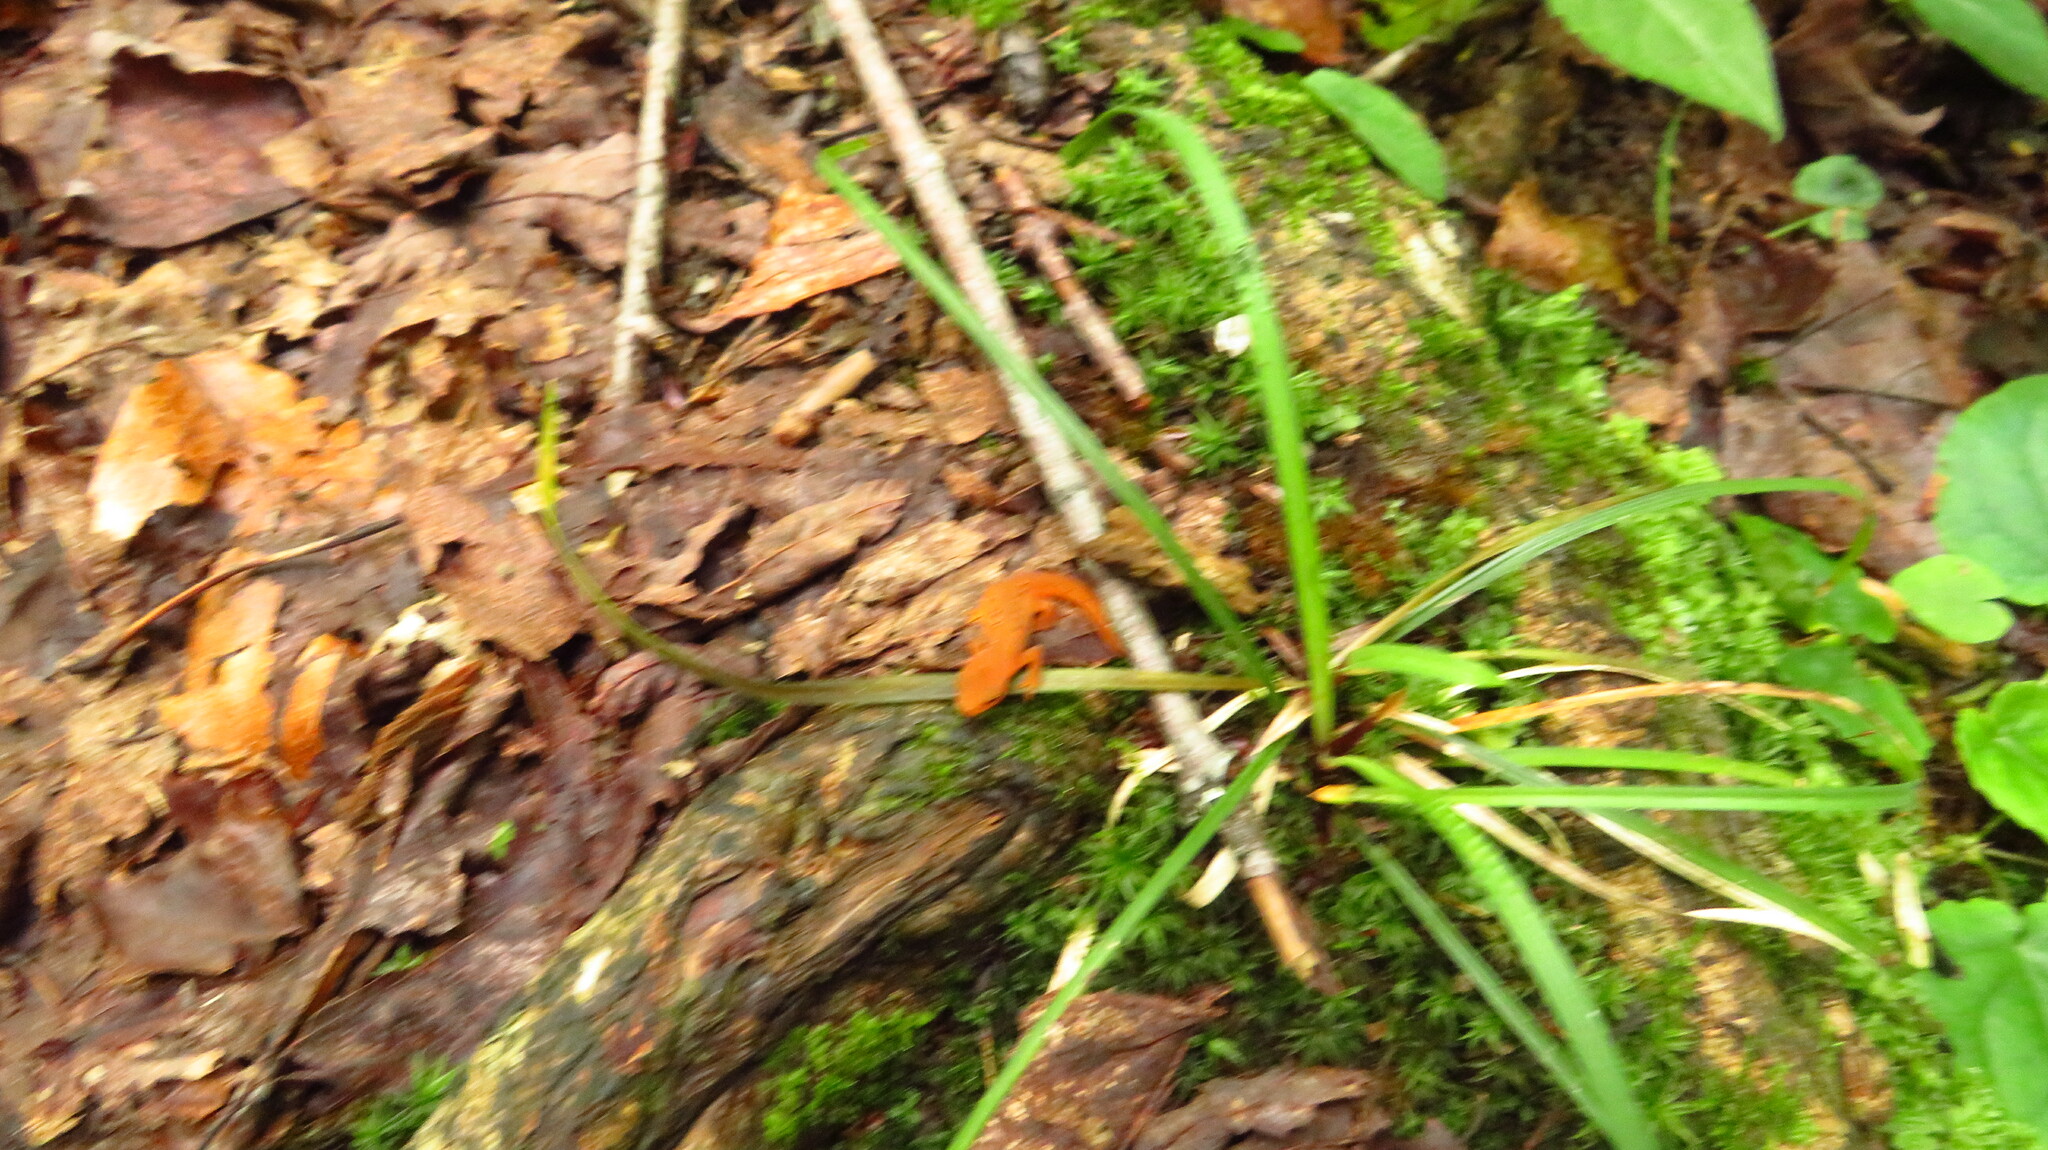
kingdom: Animalia
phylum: Chordata
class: Amphibia
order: Caudata
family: Salamandridae
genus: Notophthalmus
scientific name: Notophthalmus viridescens
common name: Eastern newt
